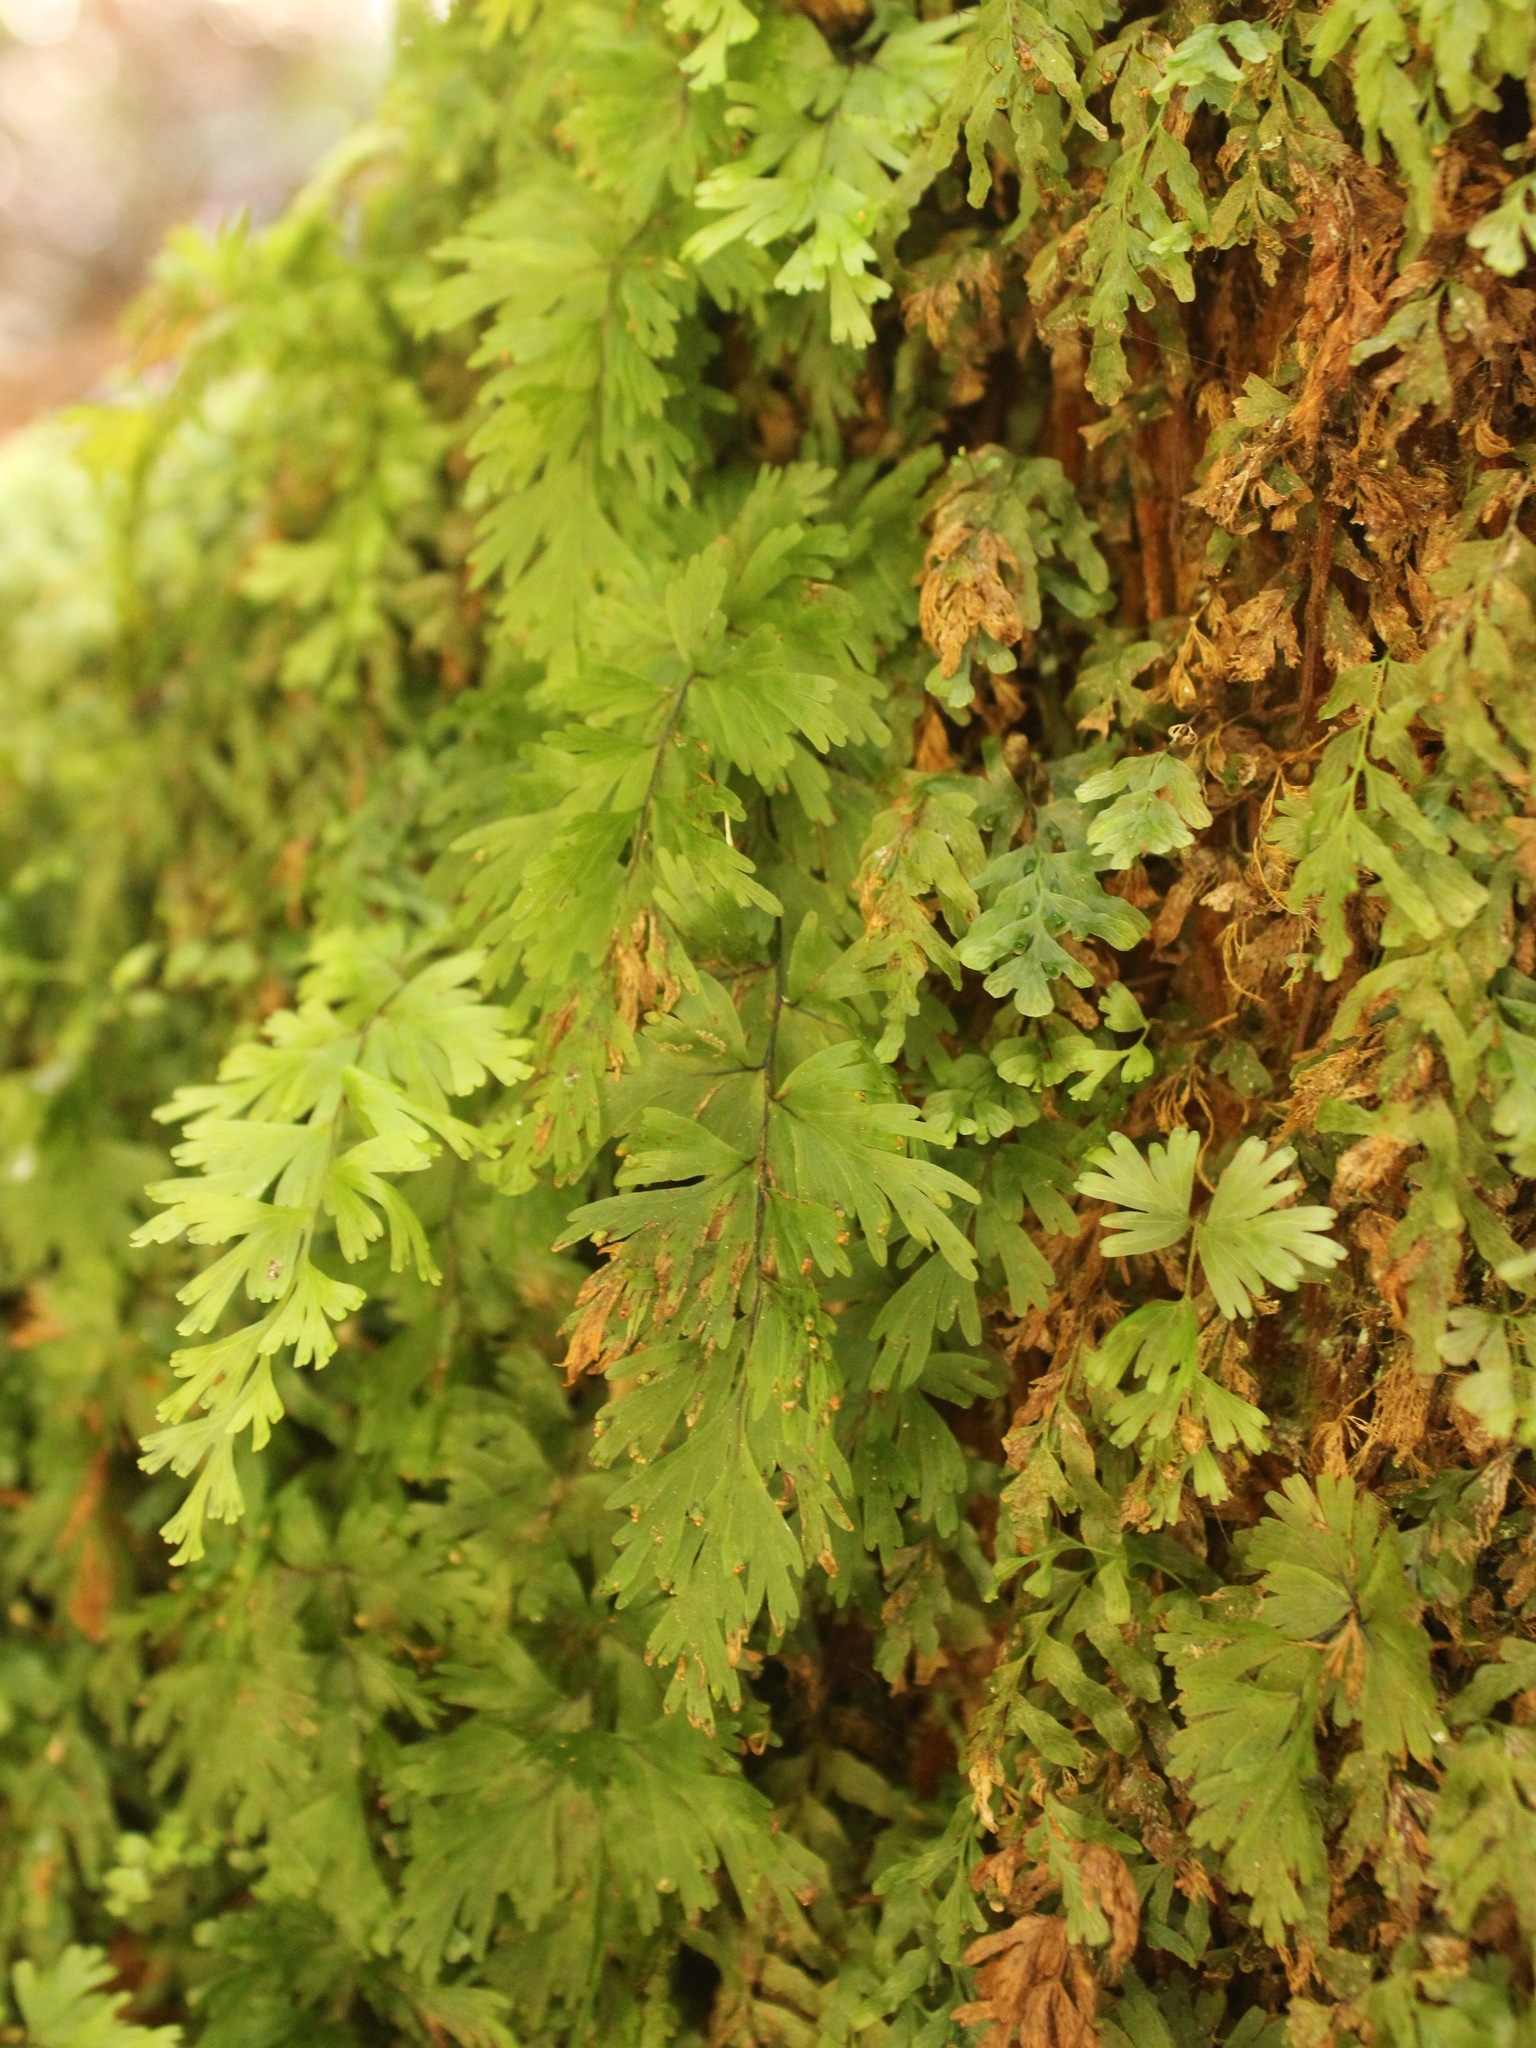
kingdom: Plantae
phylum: Tracheophyta
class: Polypodiopsida
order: Hymenophyllales
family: Hymenophyllaceae
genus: Hymenophyllum
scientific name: Hymenophyllum flabellatum
